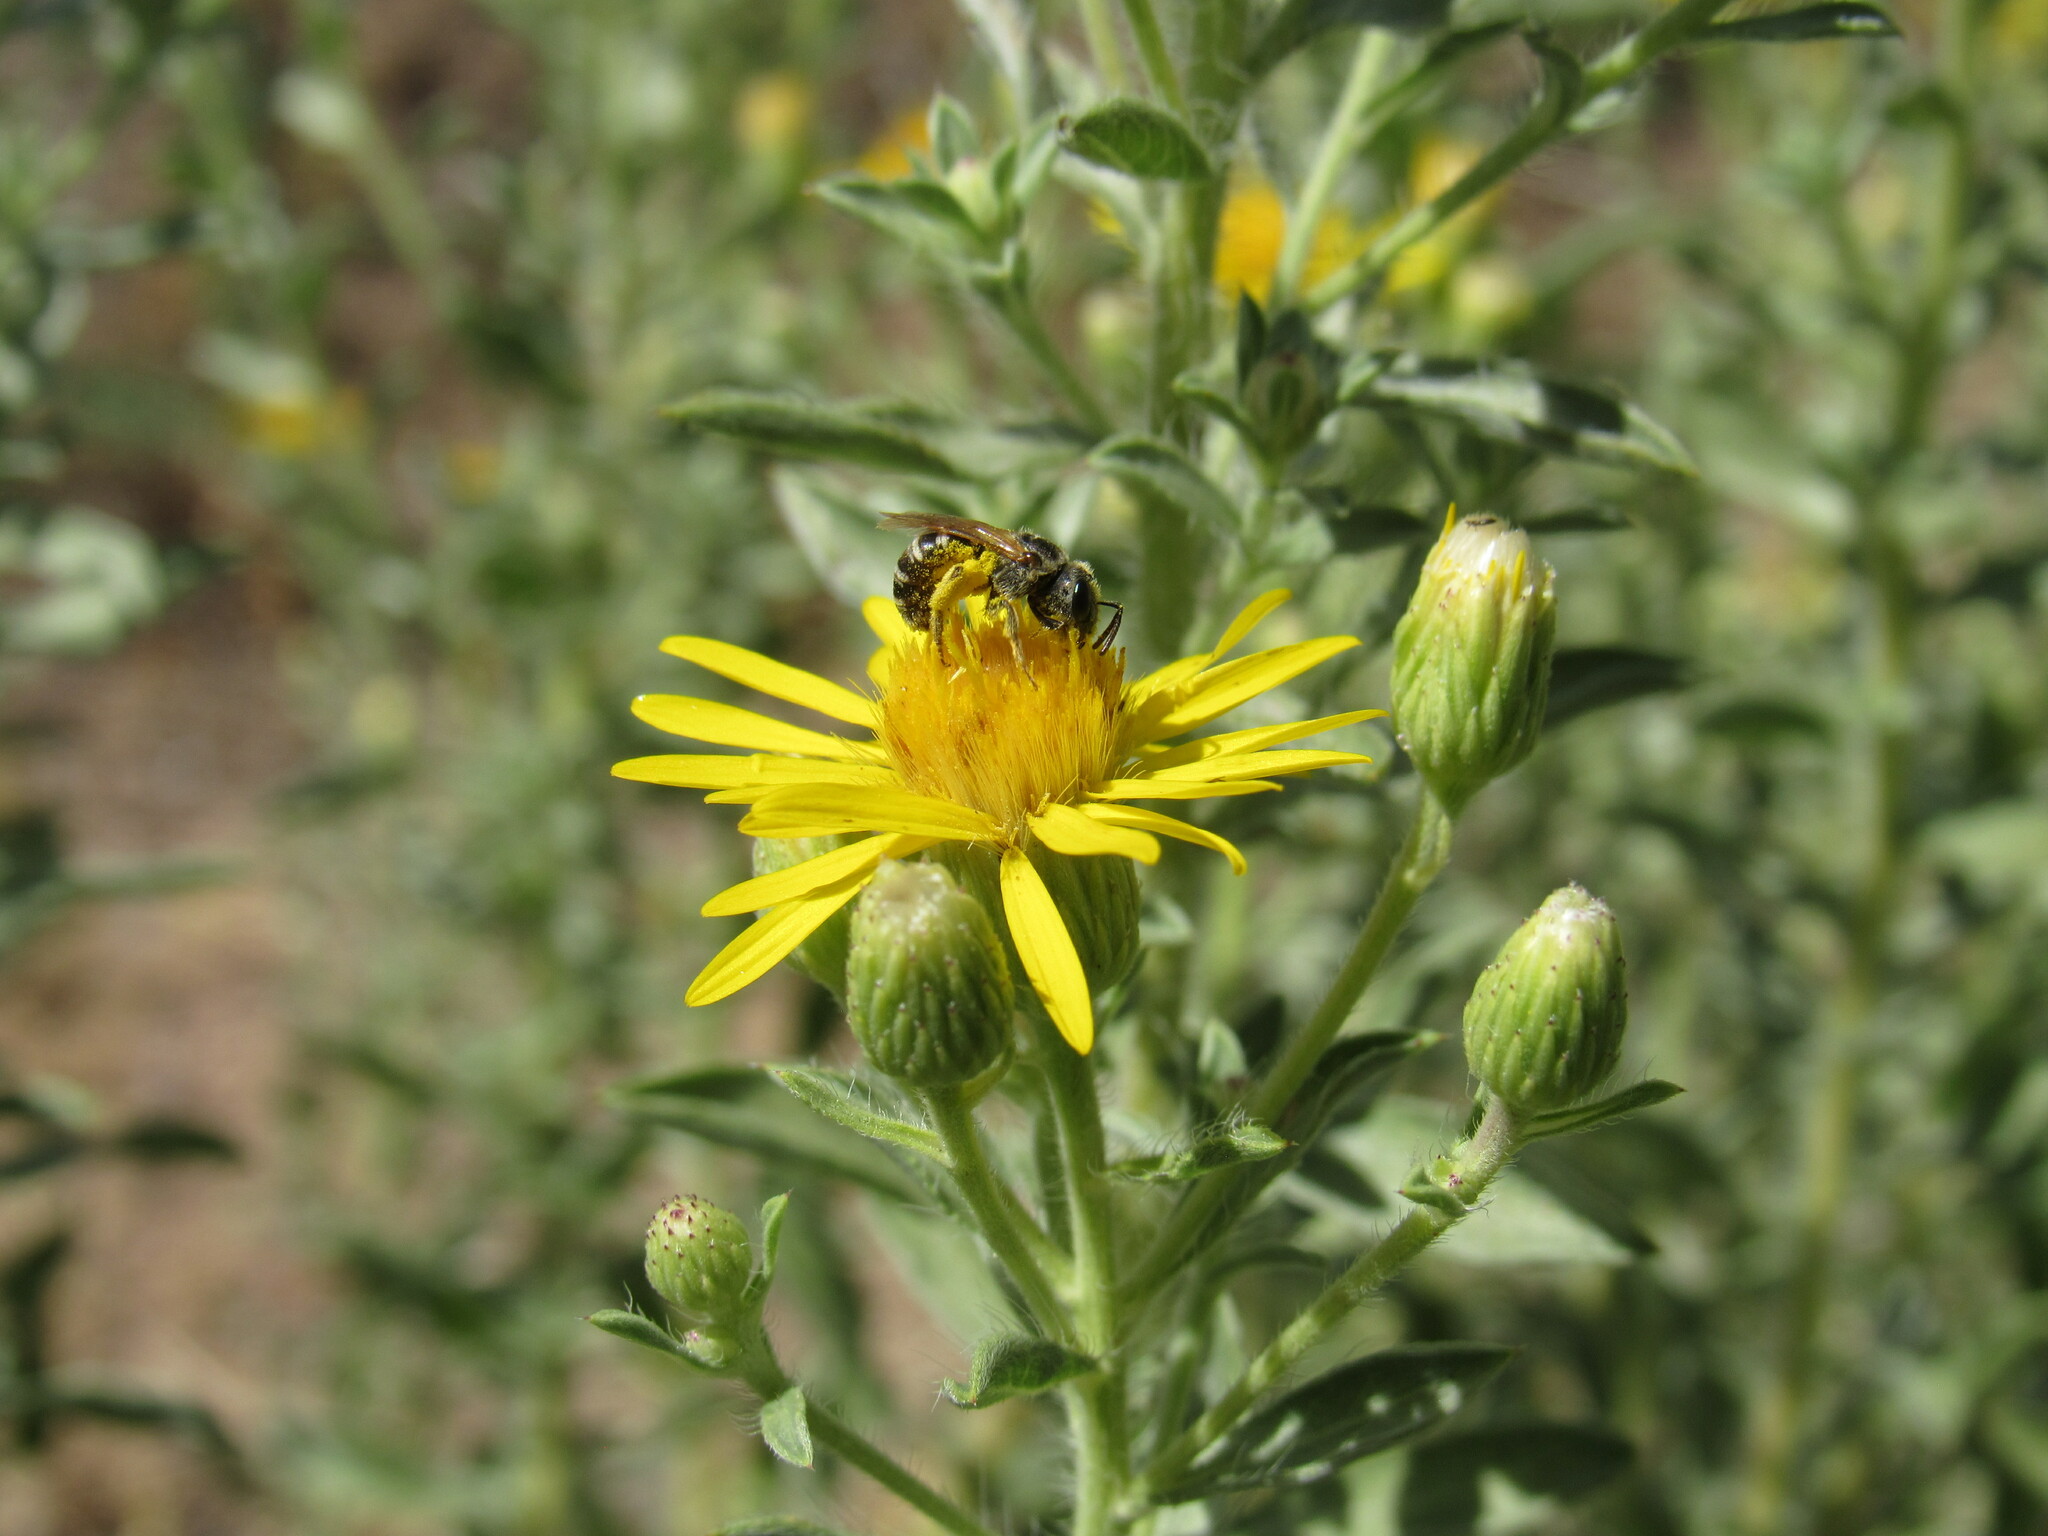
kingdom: Animalia
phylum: Arthropoda
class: Insecta
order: Hymenoptera
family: Halictidae
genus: Halictus
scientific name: Halictus ligatus
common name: Ligated furrow bee
